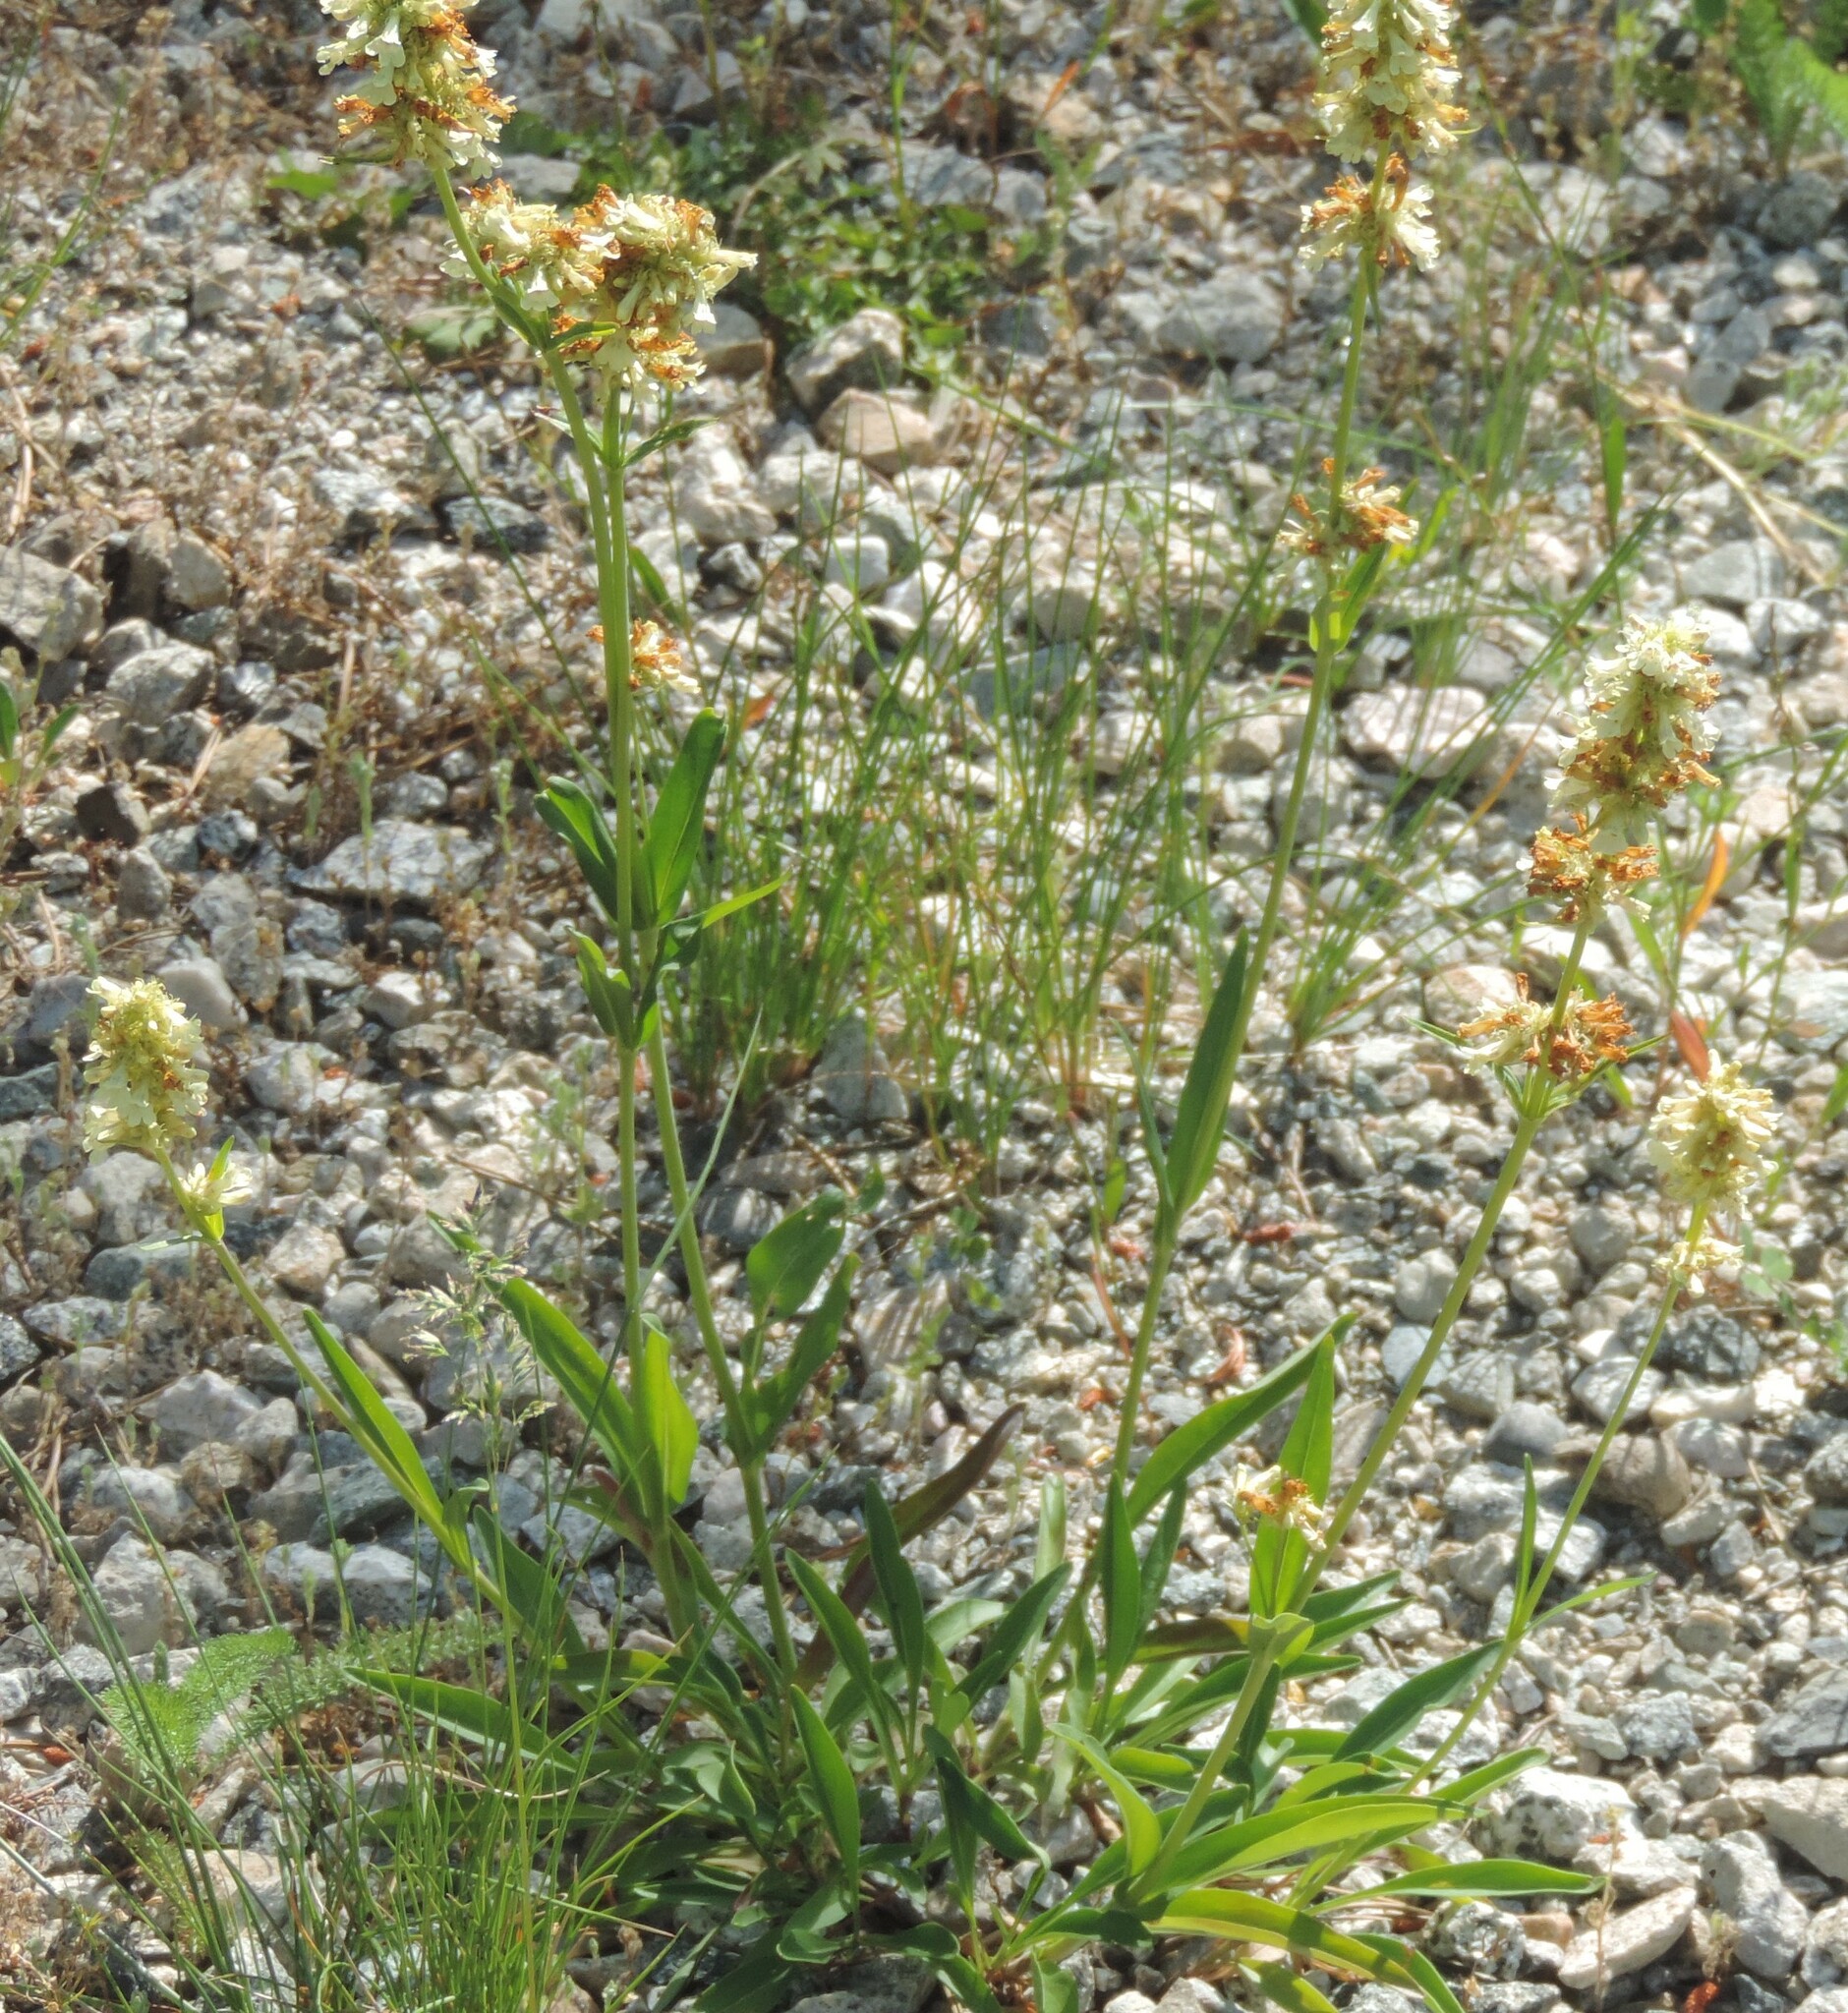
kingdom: Plantae
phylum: Tracheophyta
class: Magnoliopsida
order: Lamiales
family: Plantaginaceae
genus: Penstemon
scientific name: Penstemon confertus
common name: Lesser yellow beardtongue
